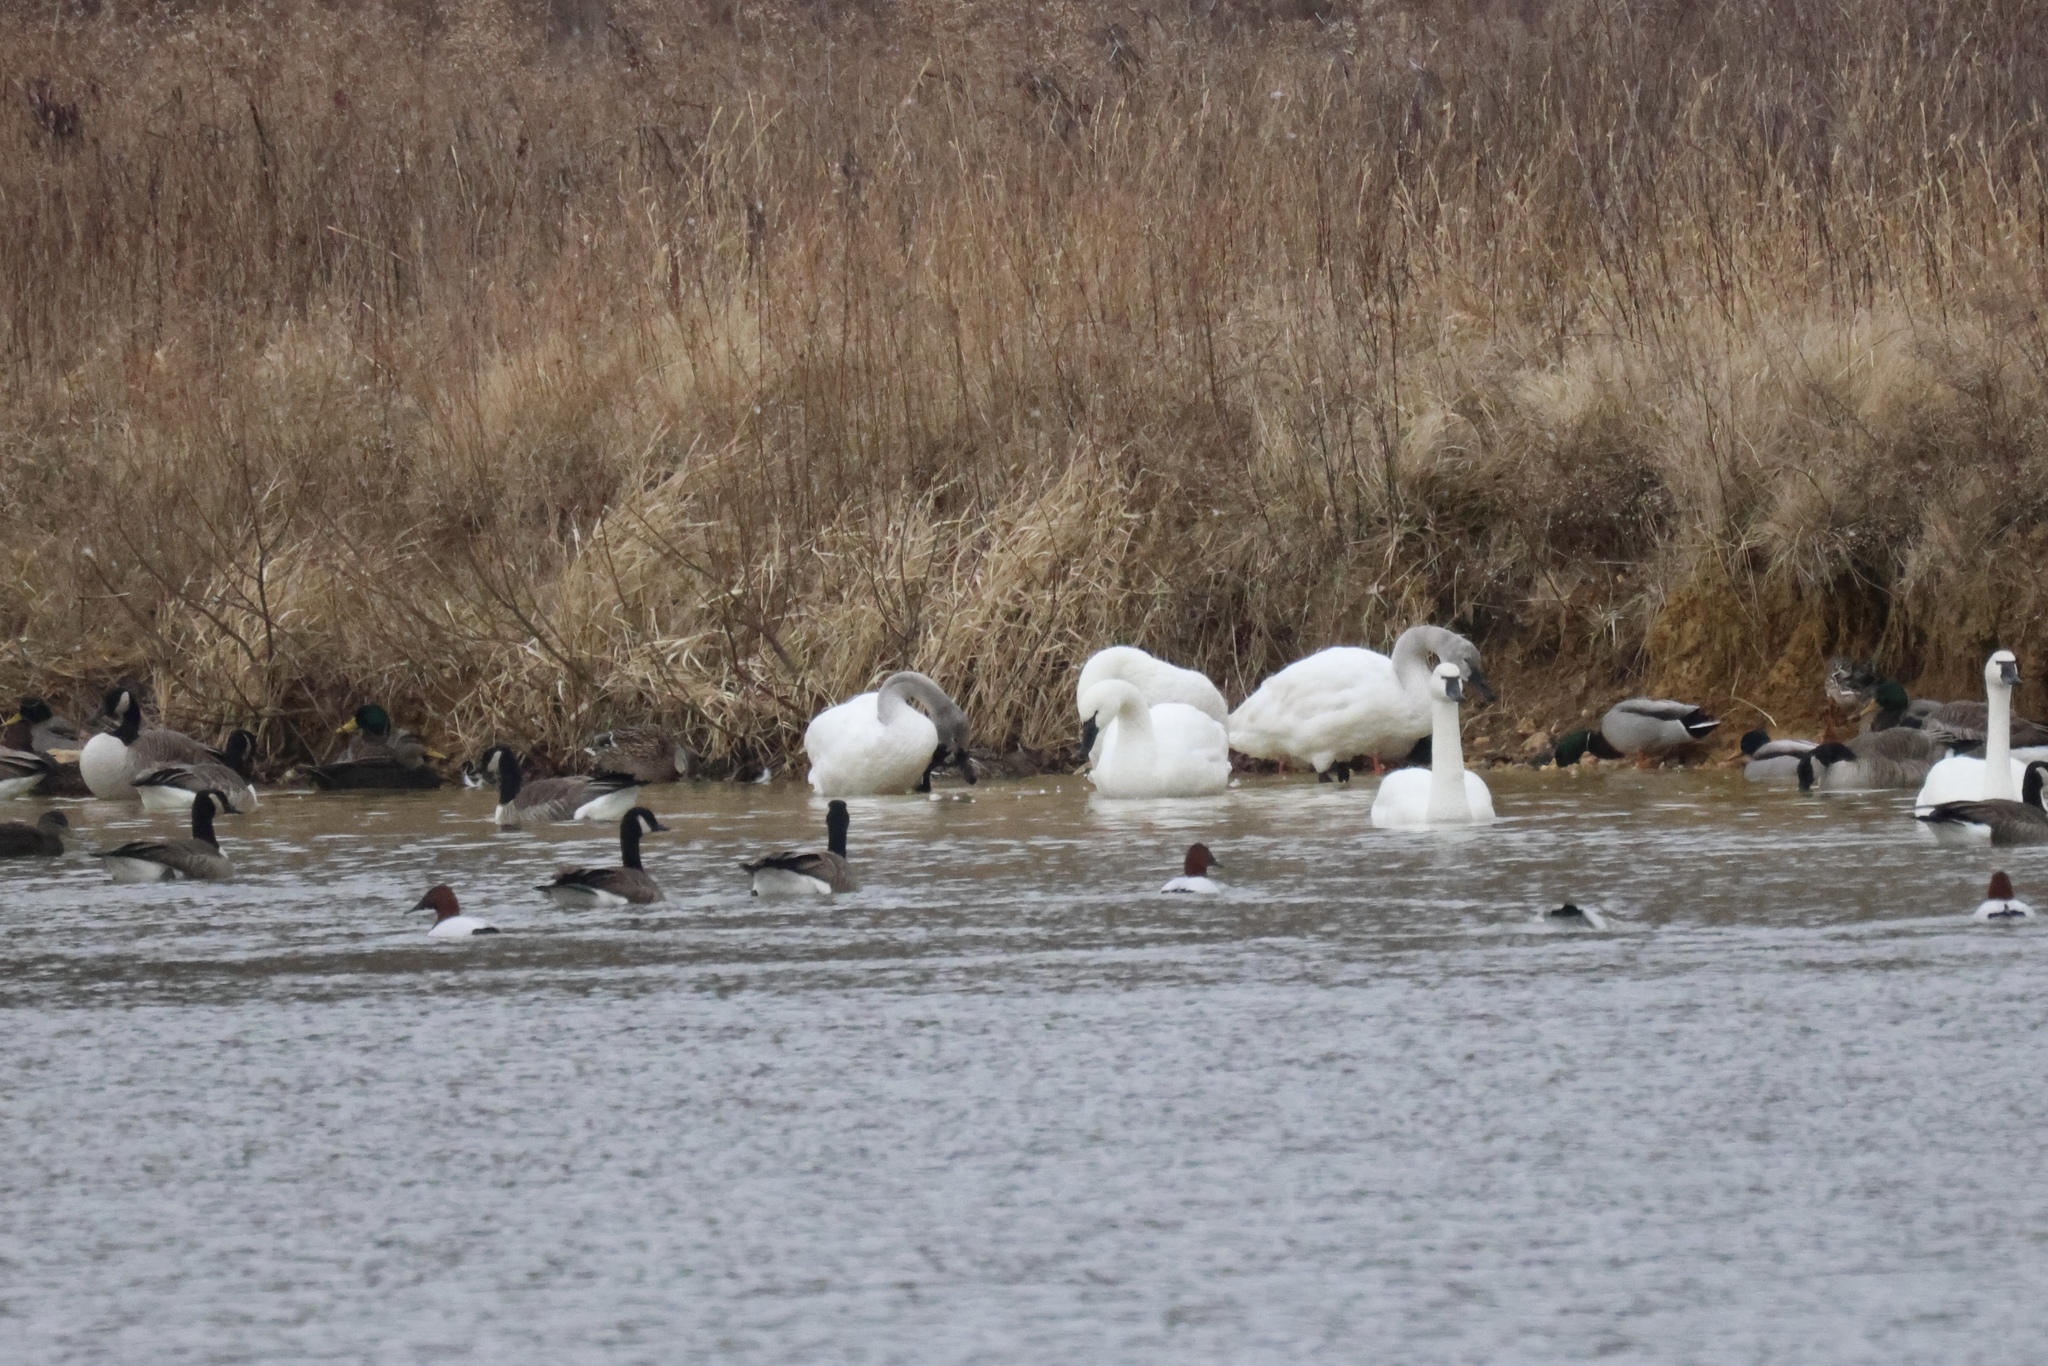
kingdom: Animalia
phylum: Chordata
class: Aves
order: Anseriformes
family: Anatidae
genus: Anas
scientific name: Anas rubripes
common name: American black duck
